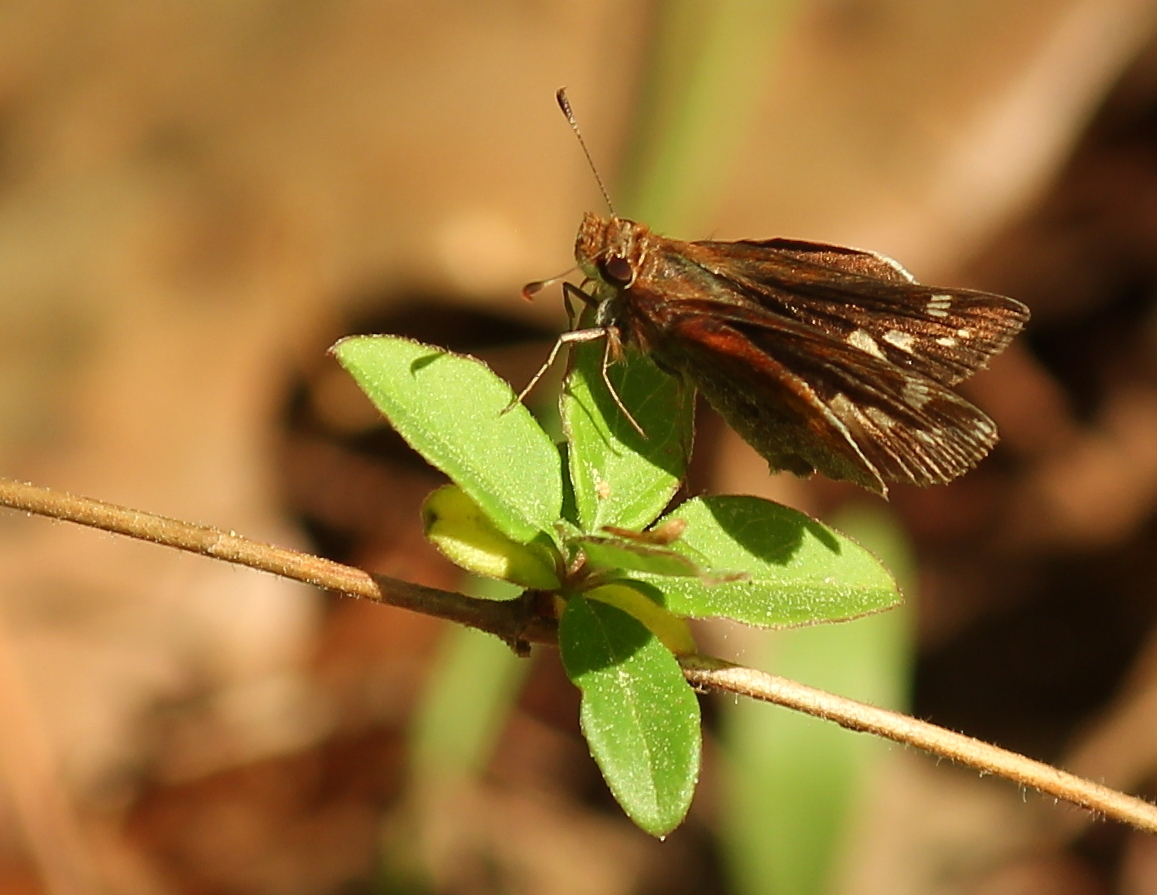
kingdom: Animalia
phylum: Arthropoda
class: Insecta
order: Lepidoptera
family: Hesperiidae
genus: Lon
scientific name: Lon zabulon
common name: Zabulon skipper
